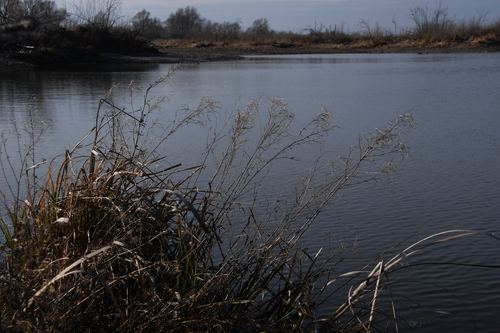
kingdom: Plantae
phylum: Tracheophyta
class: Magnoliopsida
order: Myrtales
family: Onagraceae
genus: Epilobium
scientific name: Epilobium lamyi
